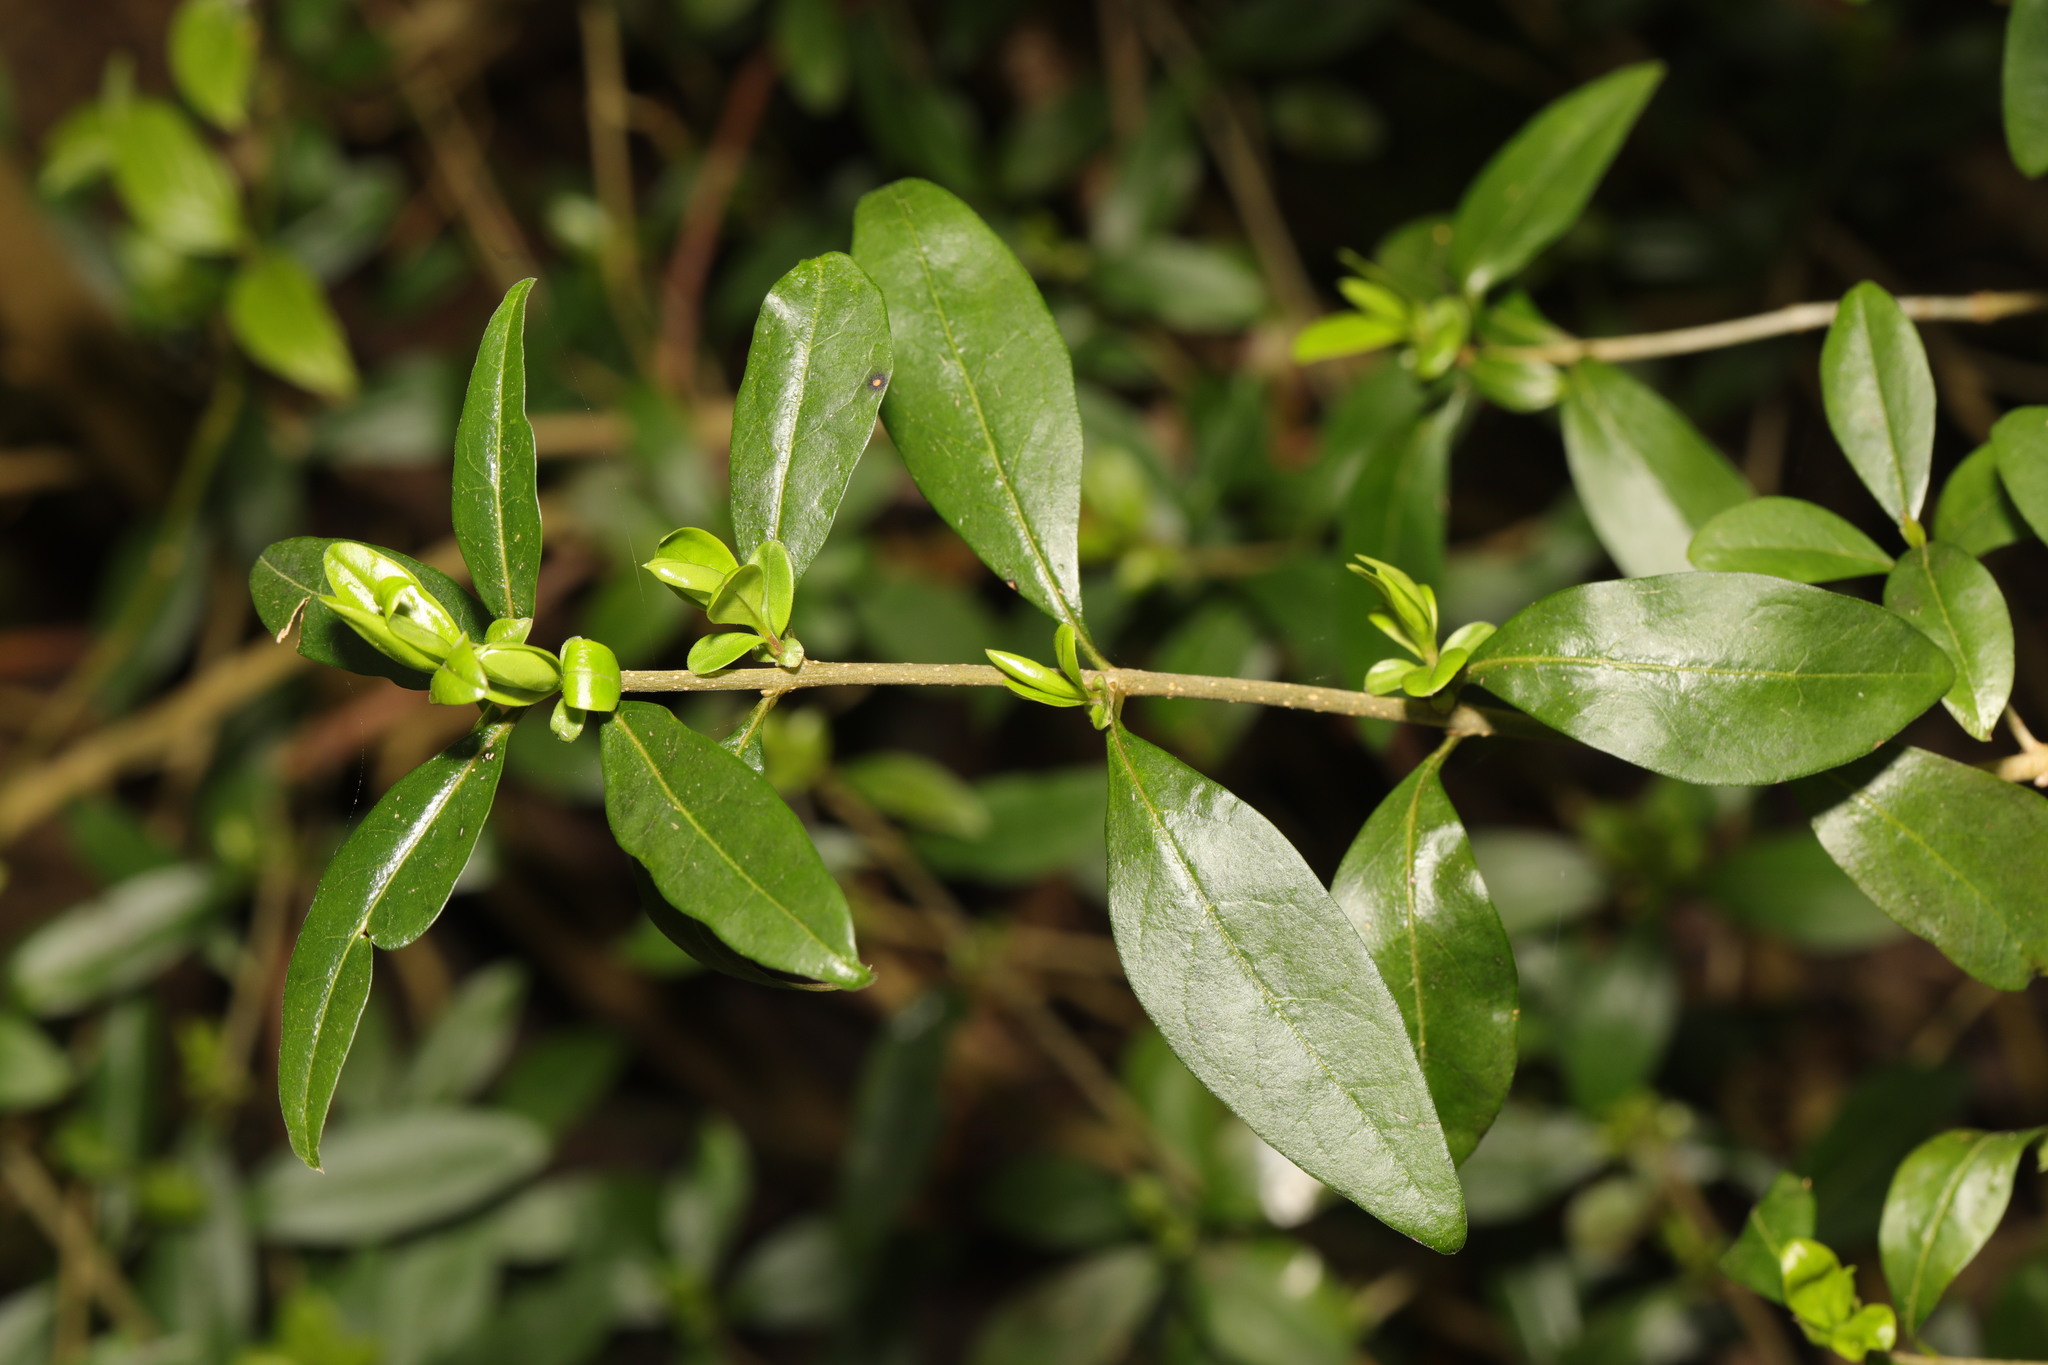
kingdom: Plantae
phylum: Tracheophyta
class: Magnoliopsida
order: Lamiales
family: Oleaceae
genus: Ligustrum
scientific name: Ligustrum vulgare
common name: Wild privet
